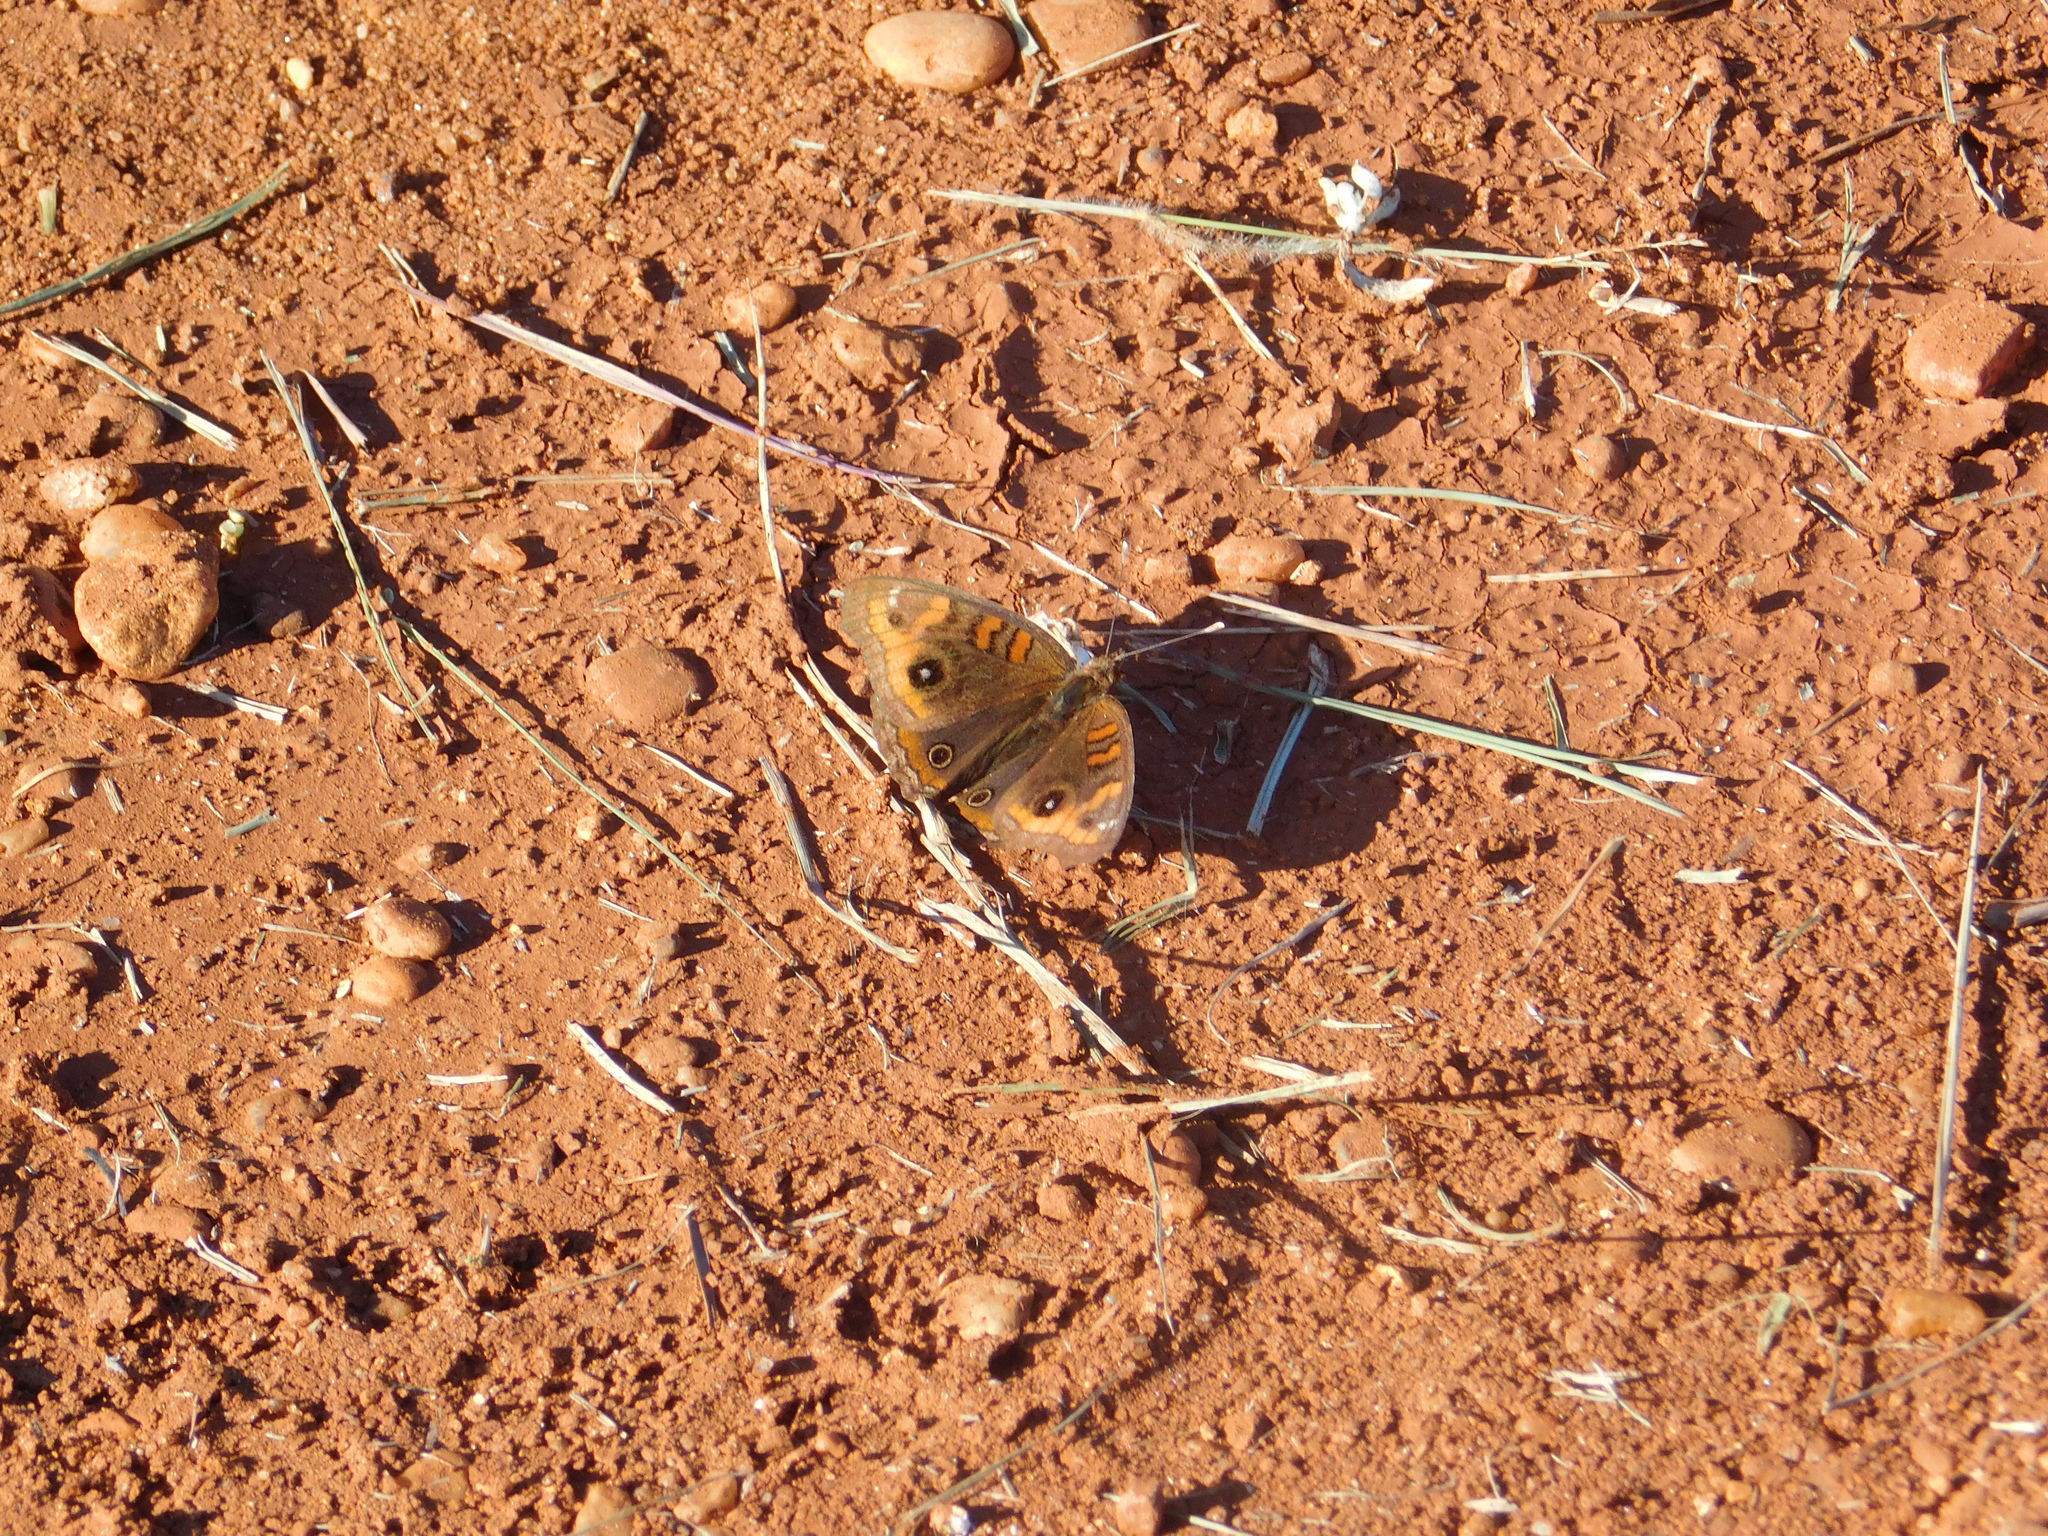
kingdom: Animalia
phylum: Arthropoda
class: Insecta
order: Lepidoptera
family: Nymphalidae
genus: Junonia
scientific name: Junonia lavinia
